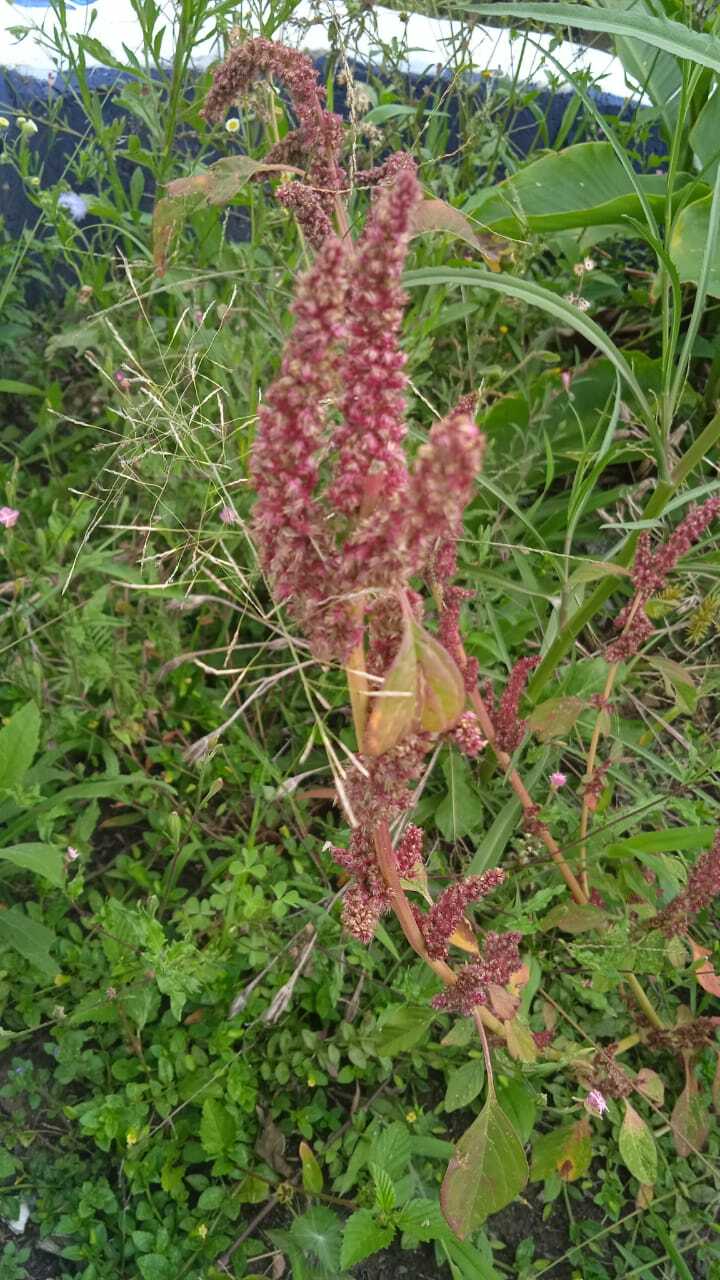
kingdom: Plantae
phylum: Tracheophyta
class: Magnoliopsida
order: Caryophyllales
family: Amaranthaceae
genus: Amaranthus
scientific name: Amaranthus cruentus
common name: Purple amaranth
